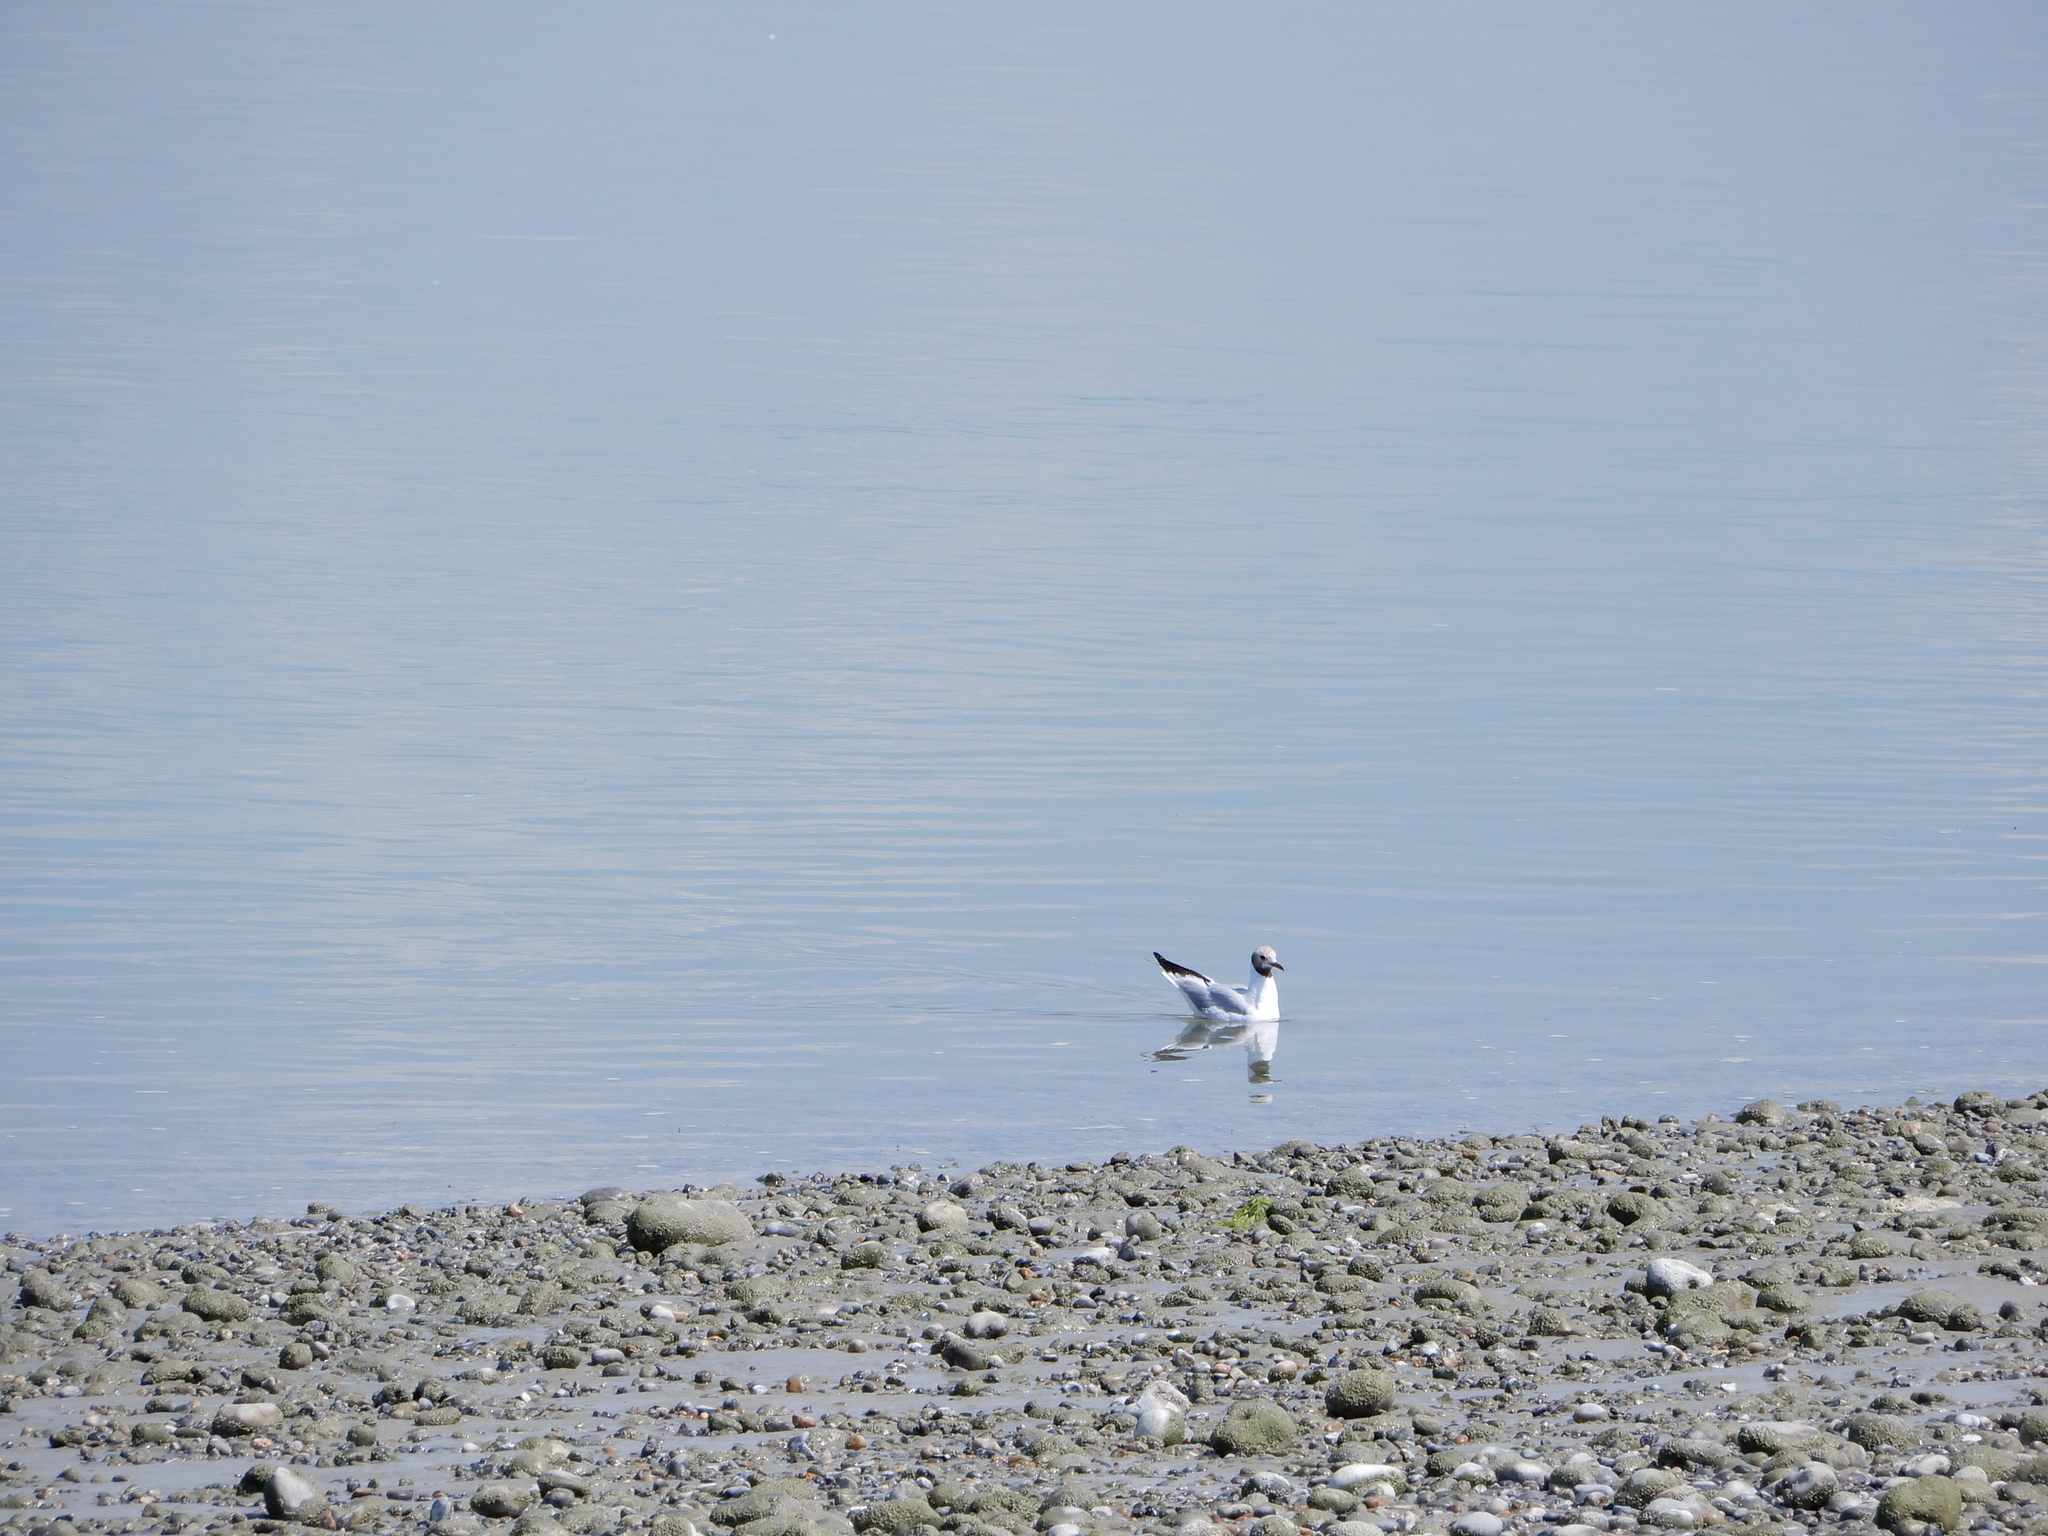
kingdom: Animalia
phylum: Chordata
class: Aves
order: Charadriiformes
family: Laridae
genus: Chroicocephalus
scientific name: Chroicocephalus ridibundus
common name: Black-headed gull
